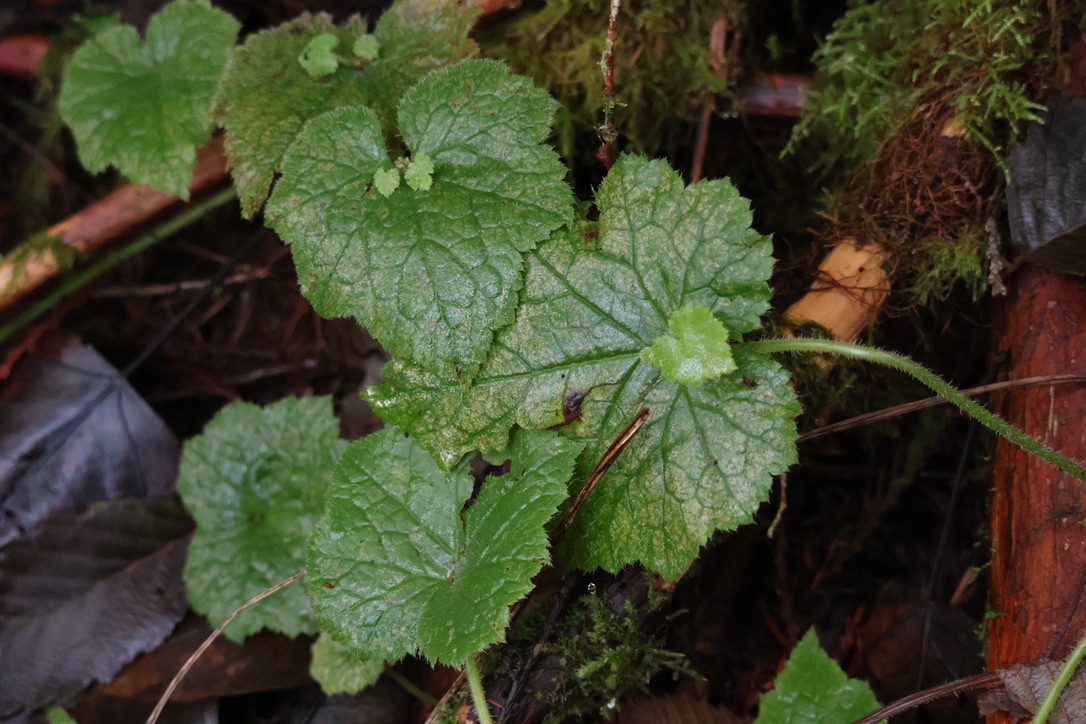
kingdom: Plantae
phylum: Tracheophyta
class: Magnoliopsida
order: Saxifragales
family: Saxifragaceae
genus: Tolmiea
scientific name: Tolmiea menziesii
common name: Pick-a-back-plant
